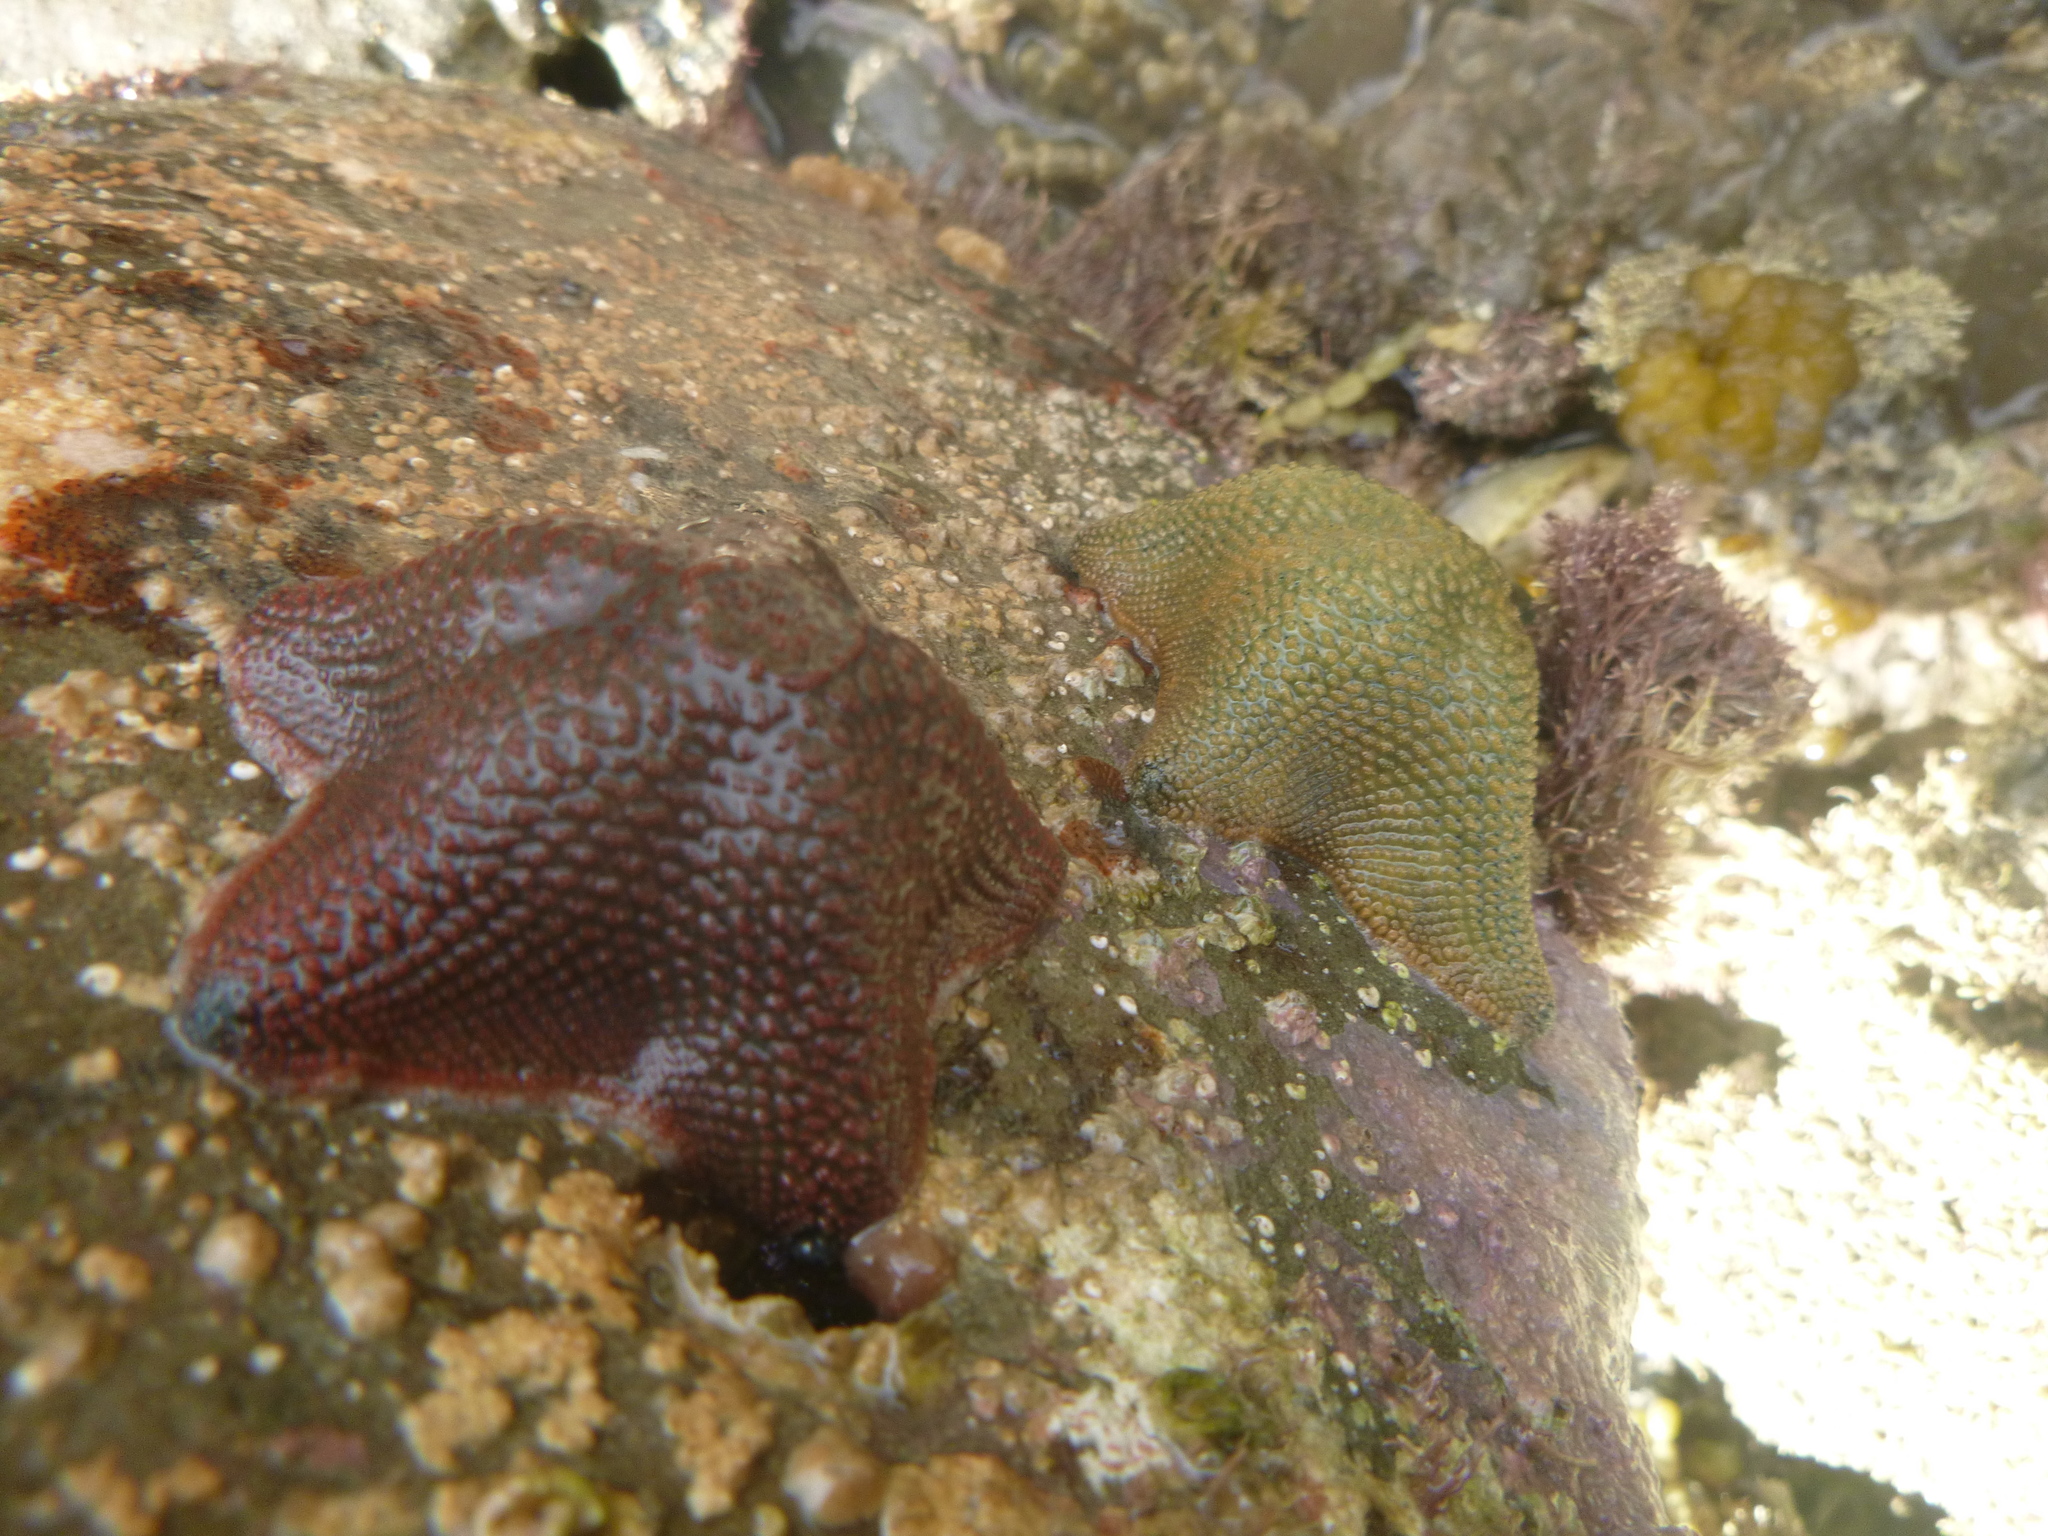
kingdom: Animalia
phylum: Echinodermata
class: Asteroidea
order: Valvatida
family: Asterinidae
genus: Patiriella
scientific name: Patiriella regularis
